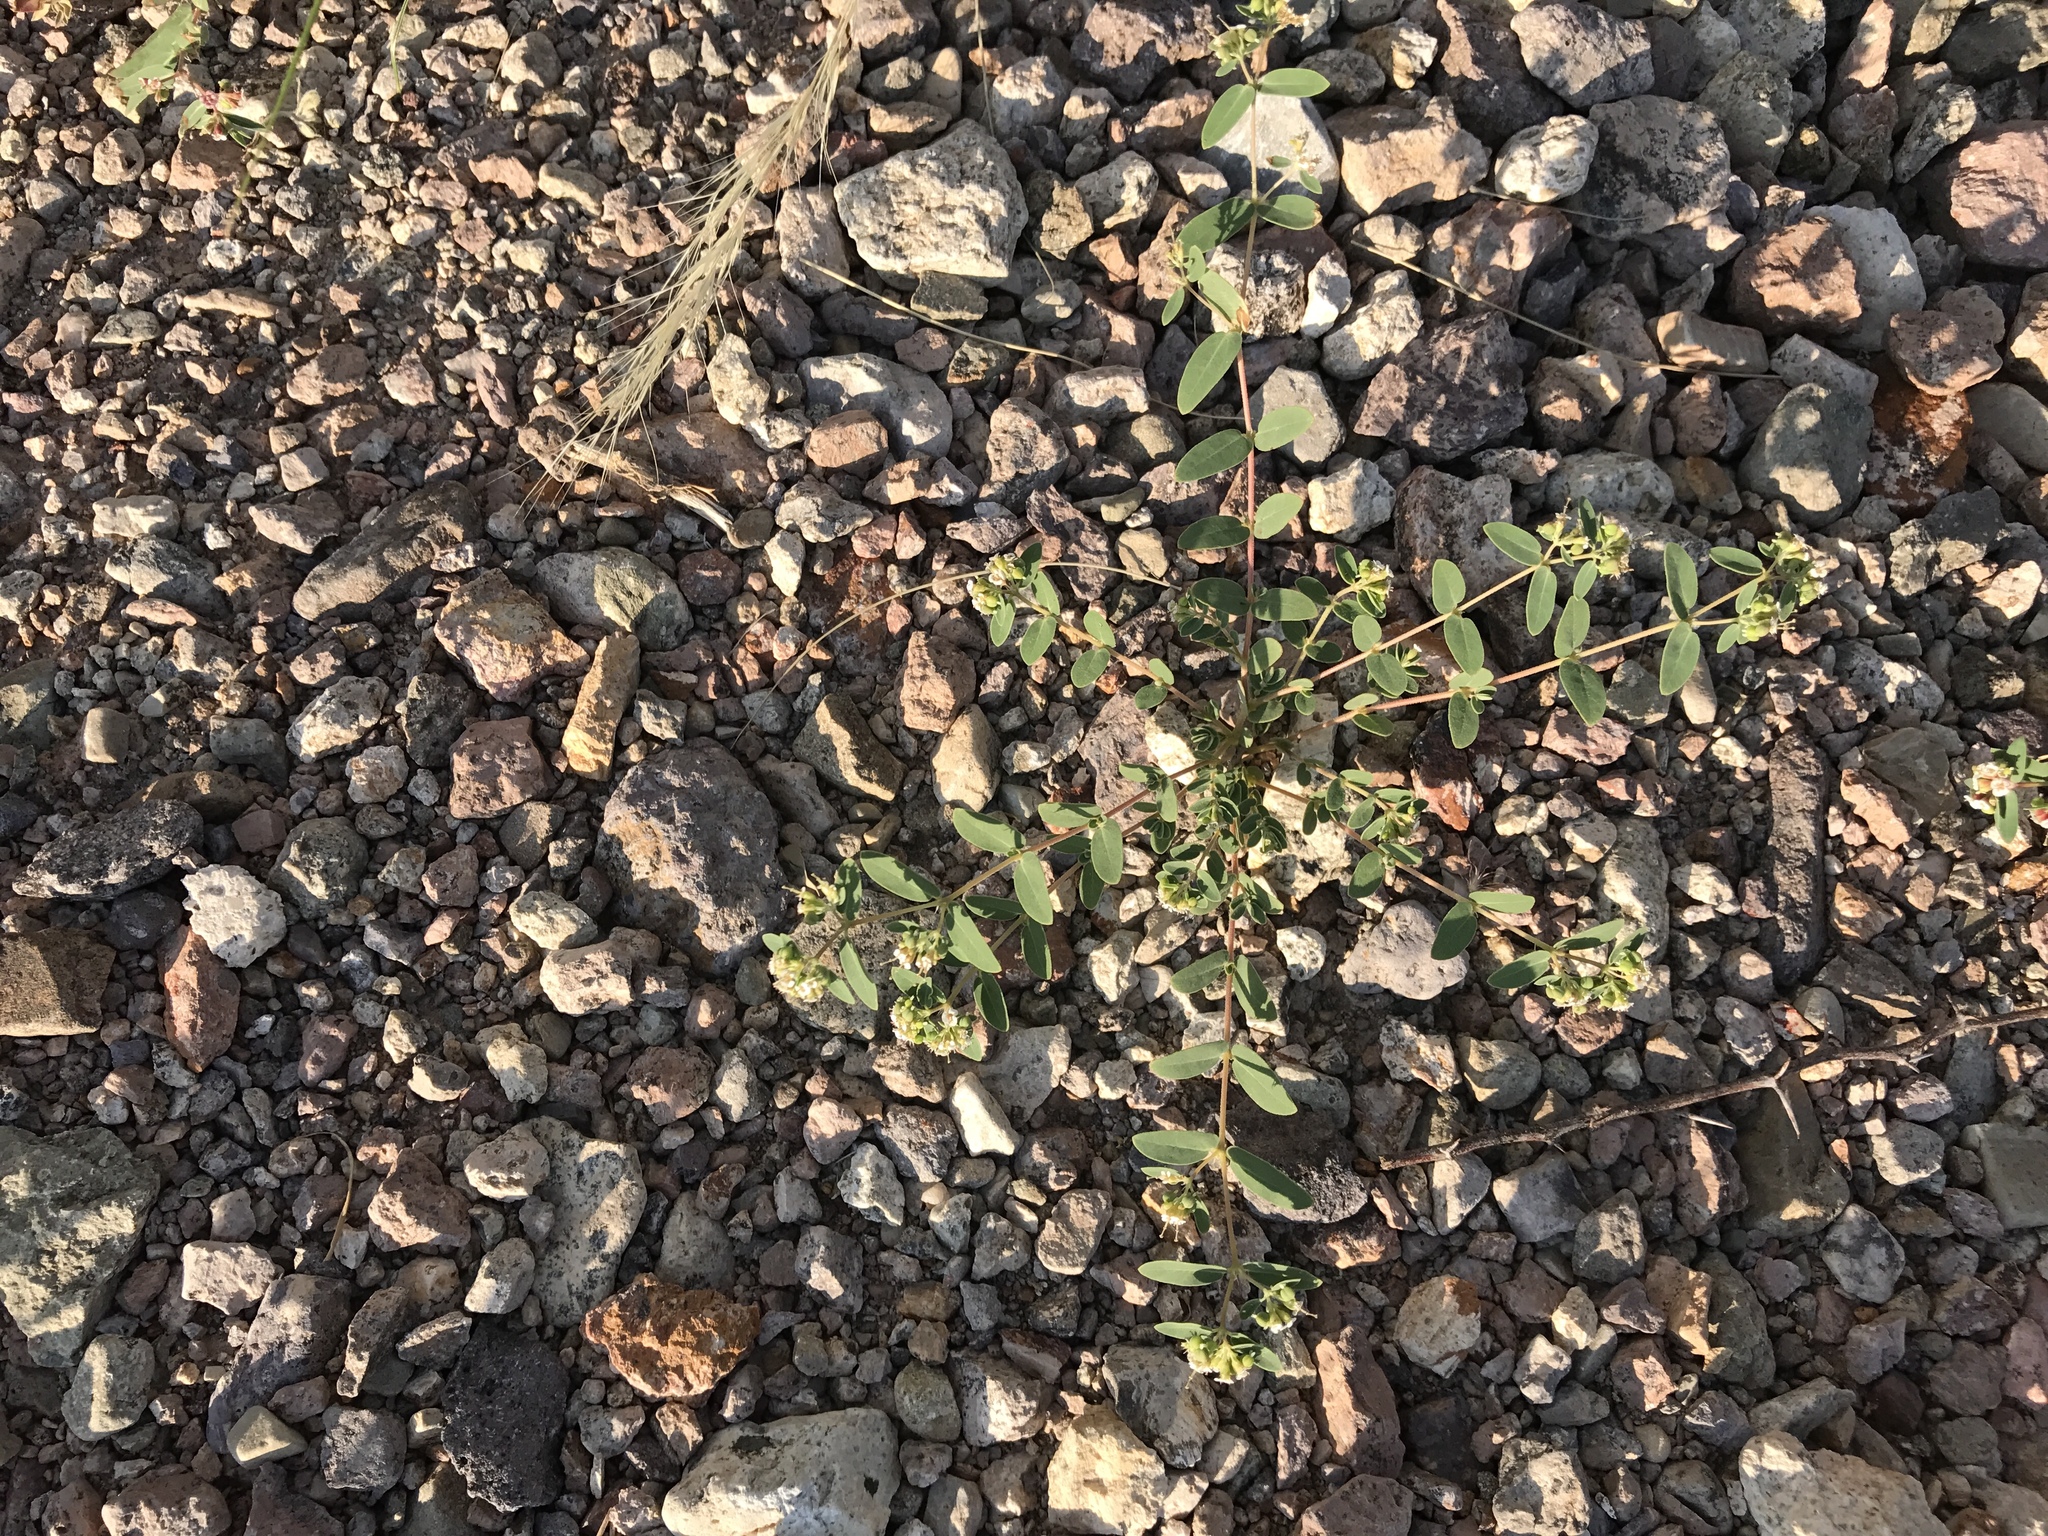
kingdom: Plantae
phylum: Tracheophyta
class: Magnoliopsida
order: Malpighiales
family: Euphorbiaceae
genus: Euphorbia
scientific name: Euphorbia capitellata
